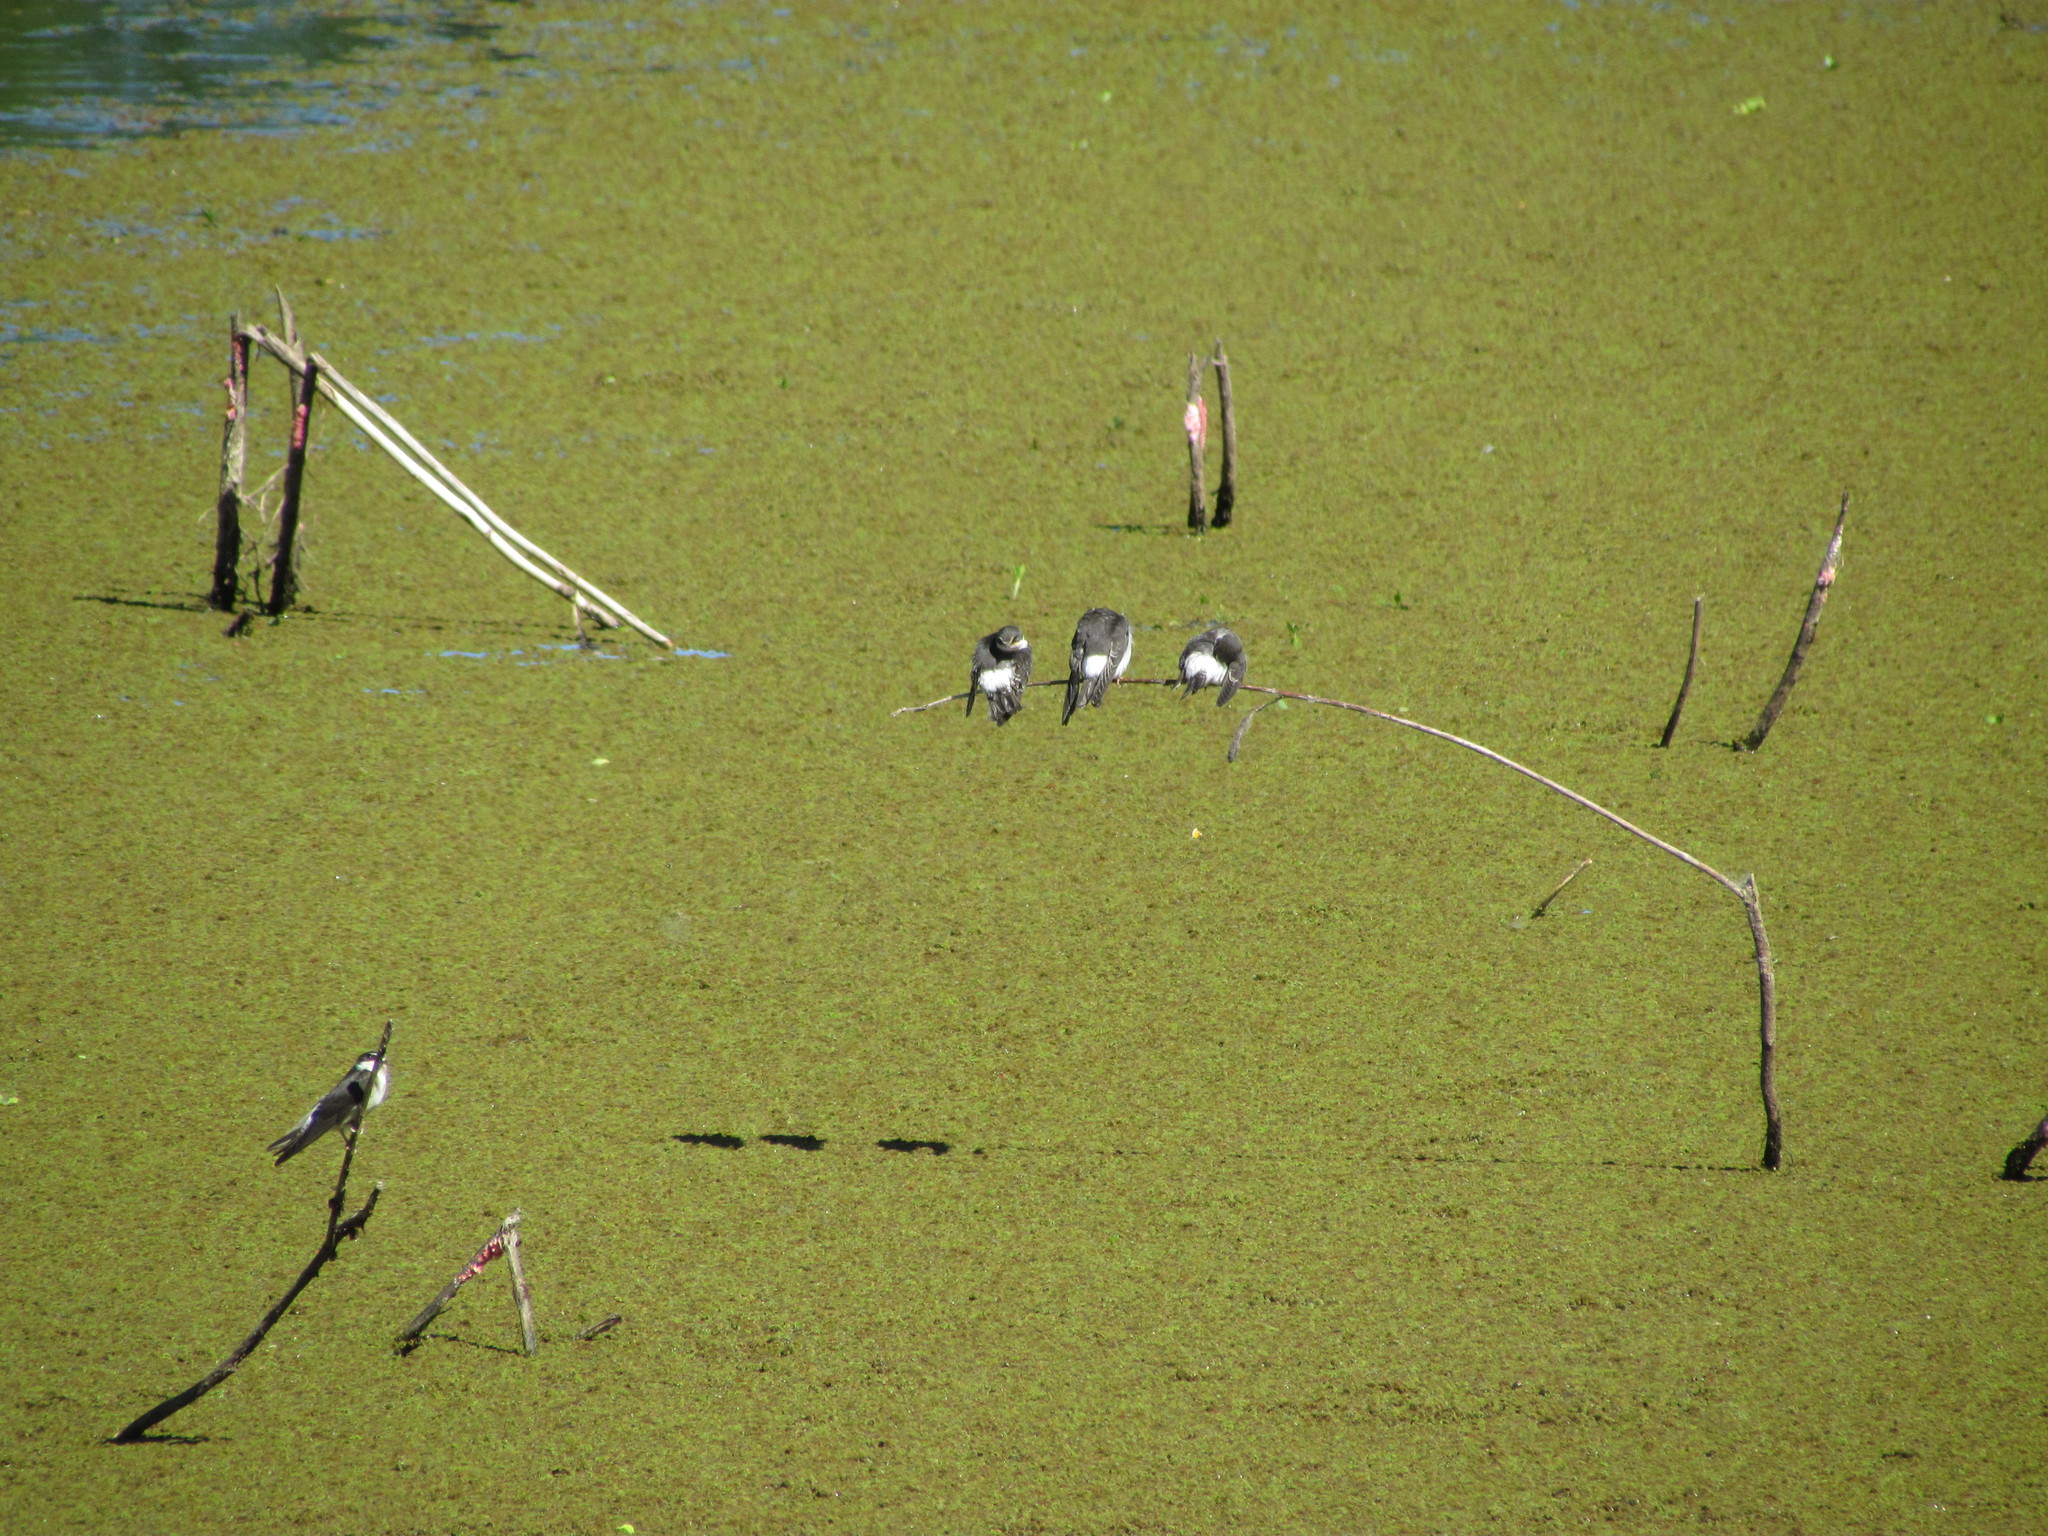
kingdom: Animalia
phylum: Chordata
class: Aves
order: Passeriformes
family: Hirundinidae
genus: Tachycineta
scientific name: Tachycineta leucorrhoa
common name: White-rumped swallow
